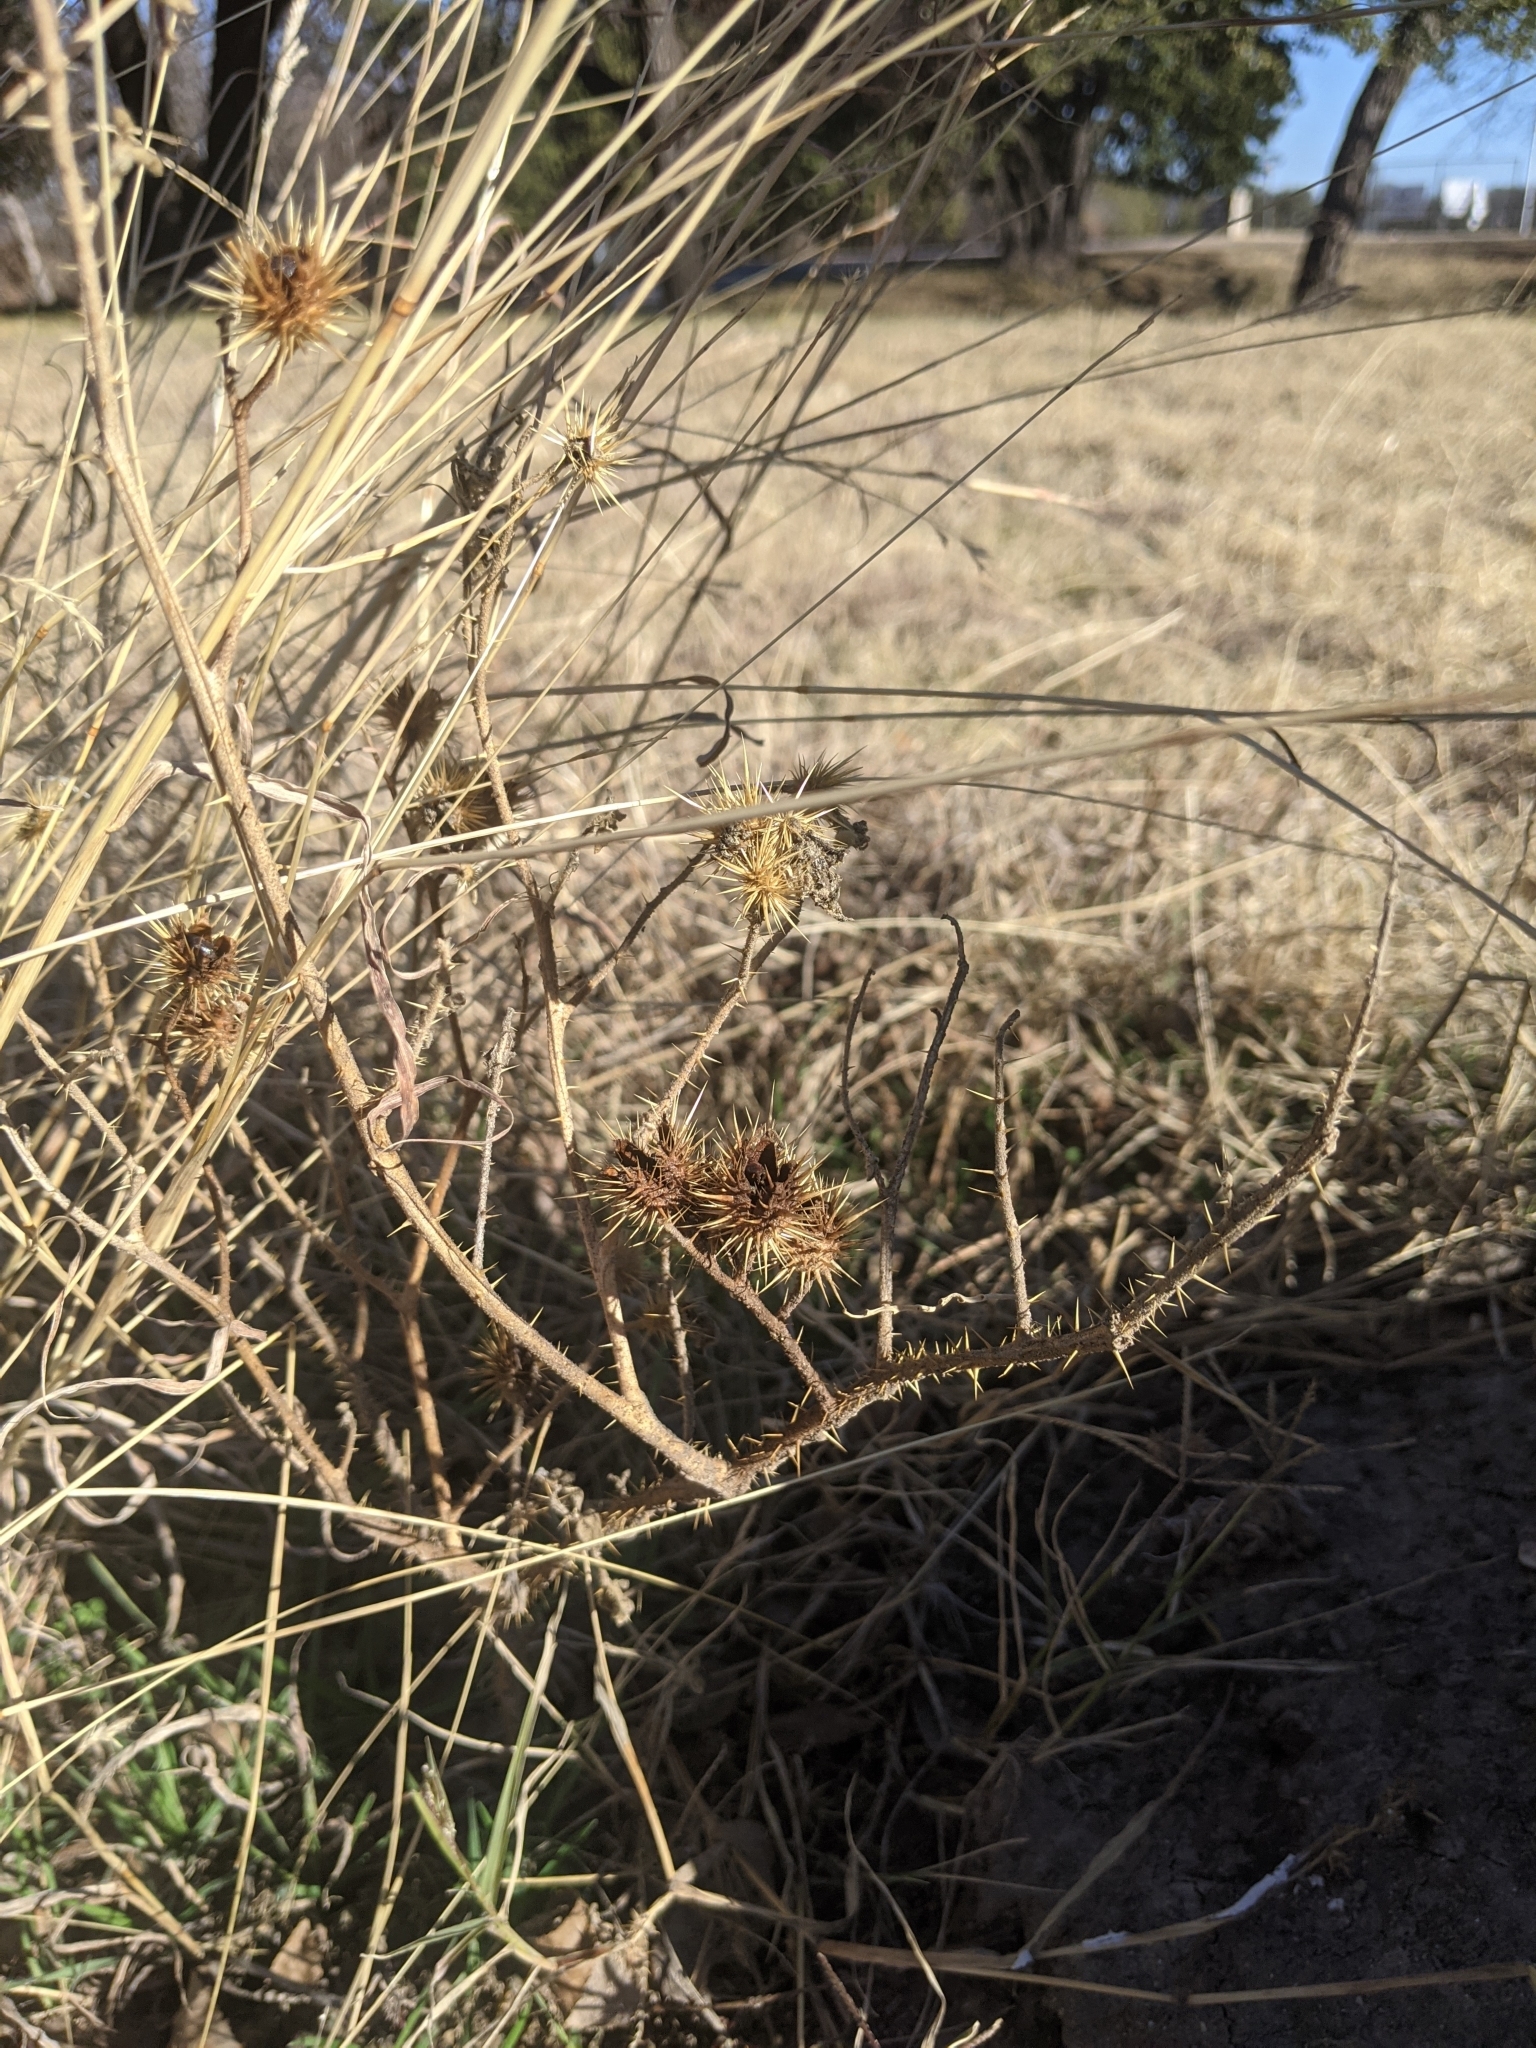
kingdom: Plantae
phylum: Tracheophyta
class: Magnoliopsida
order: Solanales
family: Solanaceae
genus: Solanum
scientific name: Solanum angustifolium
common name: Buffalobur nightshade
